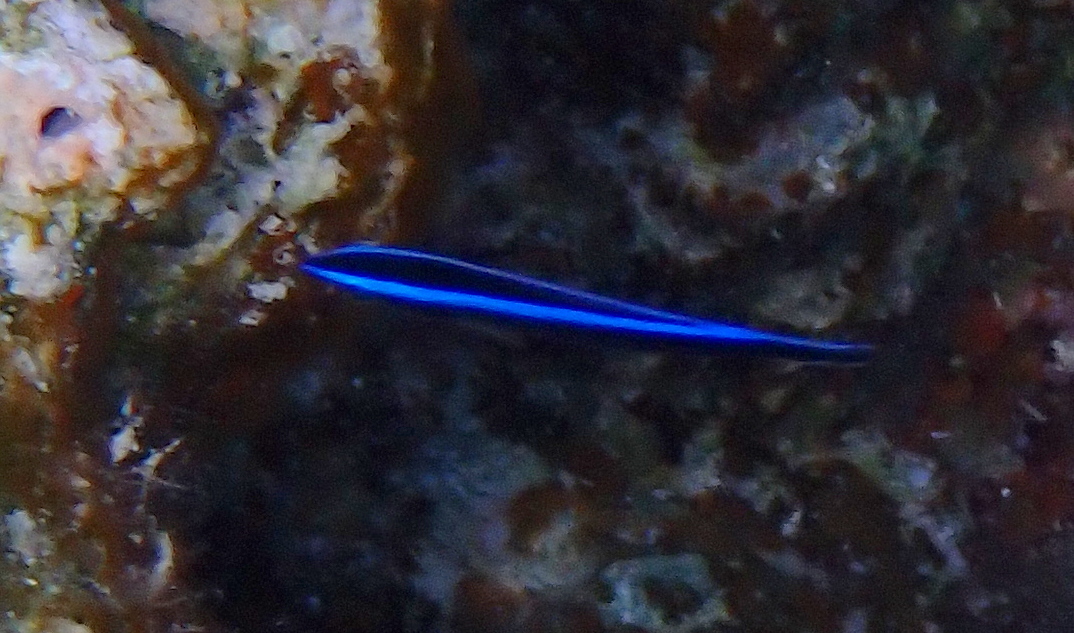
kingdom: Animalia
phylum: Chordata
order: Perciformes
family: Labridae
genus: Labroides
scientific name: Labroides dimidiatus
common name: Blue diesel wrasse
